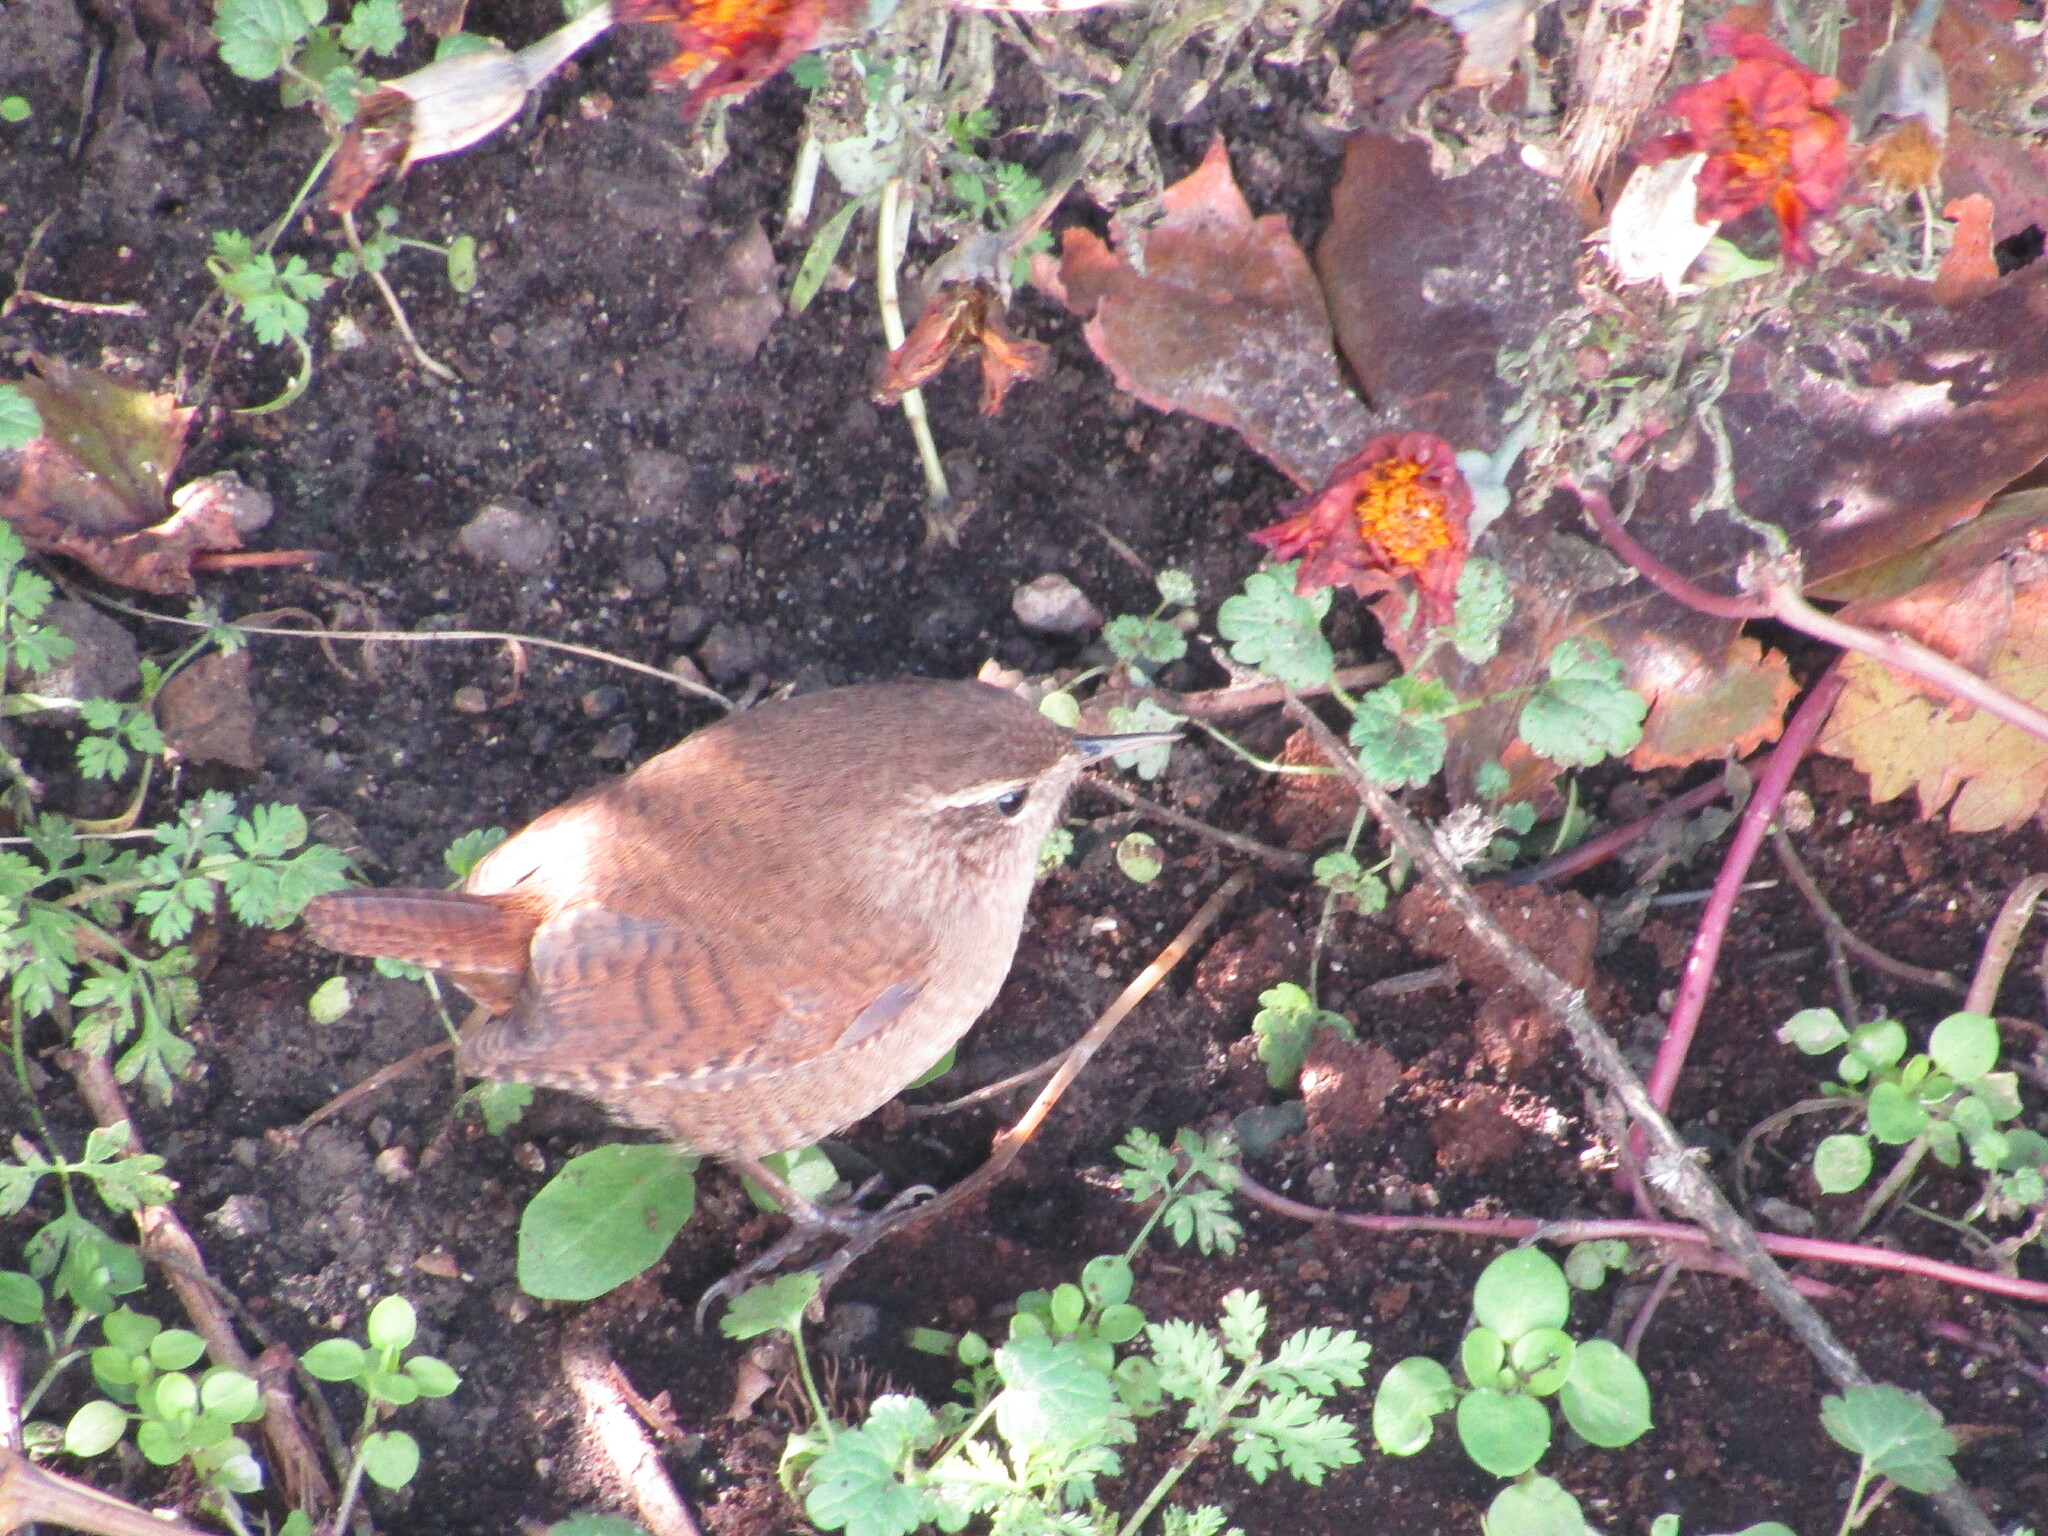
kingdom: Animalia
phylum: Chordata
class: Aves
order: Passeriformes
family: Troglodytidae
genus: Troglodytes
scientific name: Troglodytes troglodytes
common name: Eurasian wren
